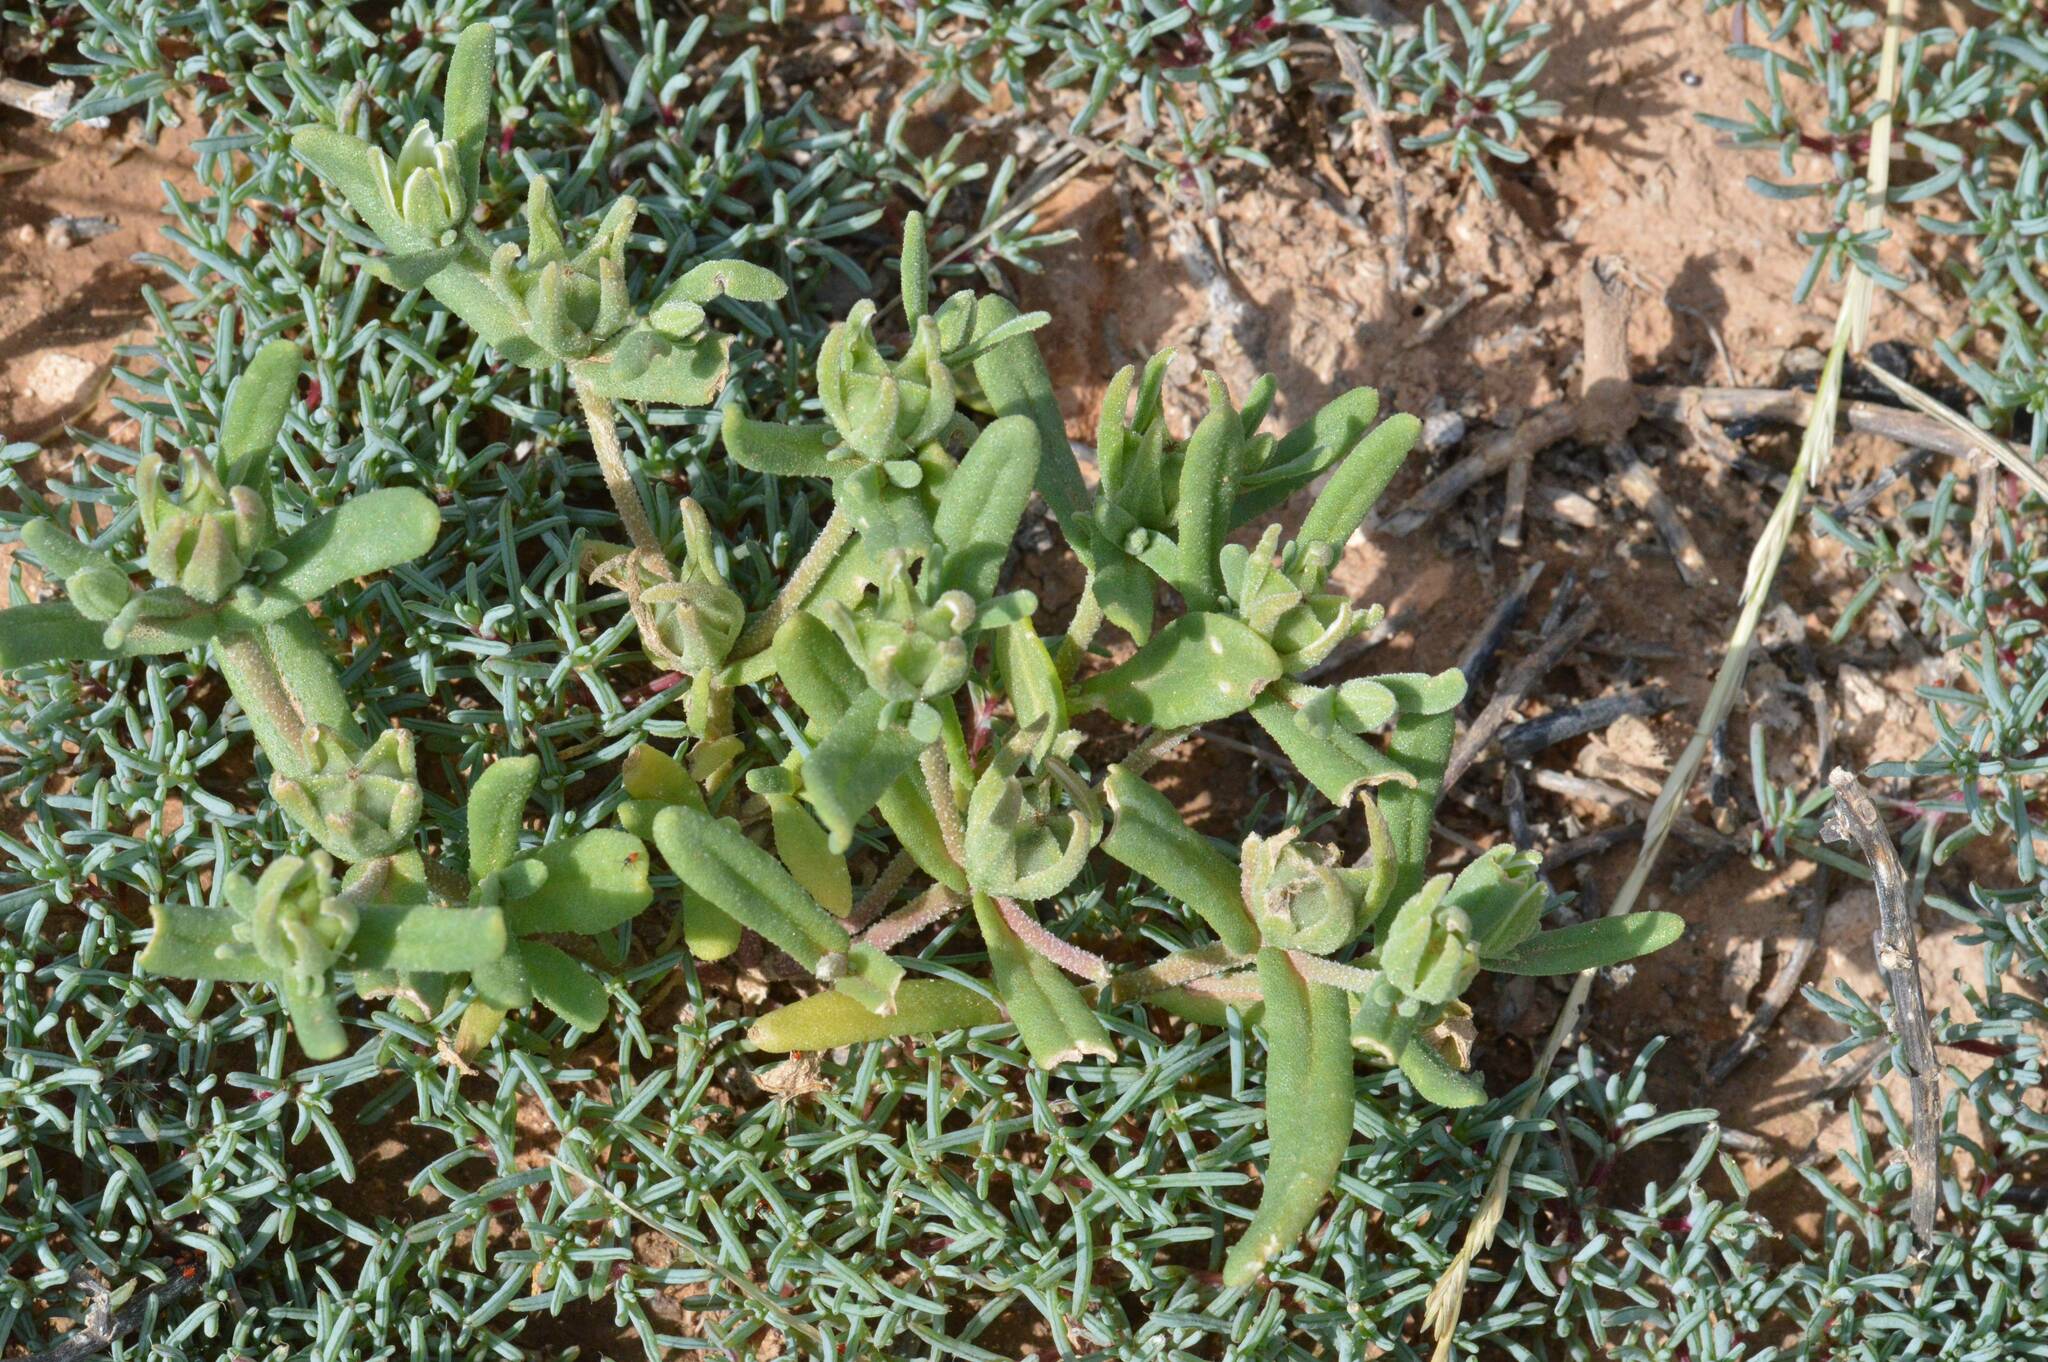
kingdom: Plantae
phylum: Tracheophyta
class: Magnoliopsida
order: Caryophyllales
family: Aizoaceae
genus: Aizoanthemopsis
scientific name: Aizoanthemopsis hispanica
